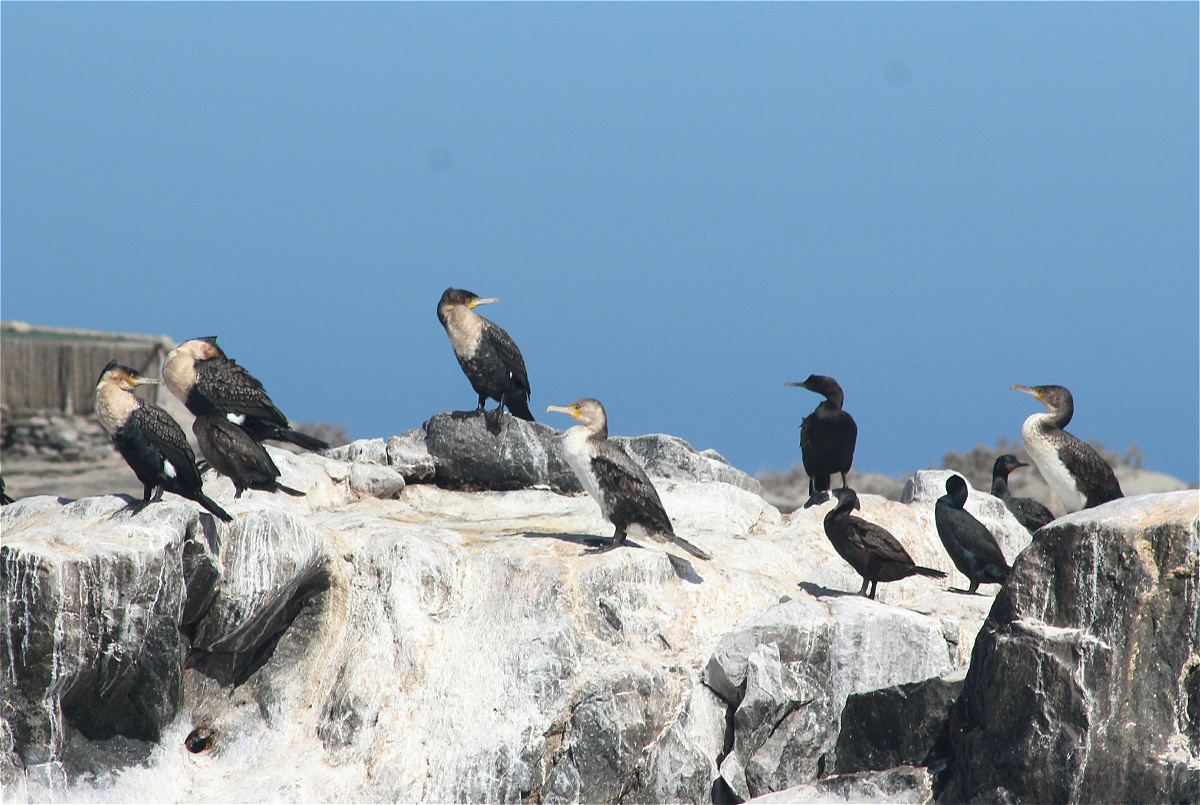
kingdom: Animalia
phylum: Chordata
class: Aves
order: Suliformes
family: Phalacrocoracidae
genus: Phalacrocorax
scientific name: Phalacrocorax carbo
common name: Great cormorant
